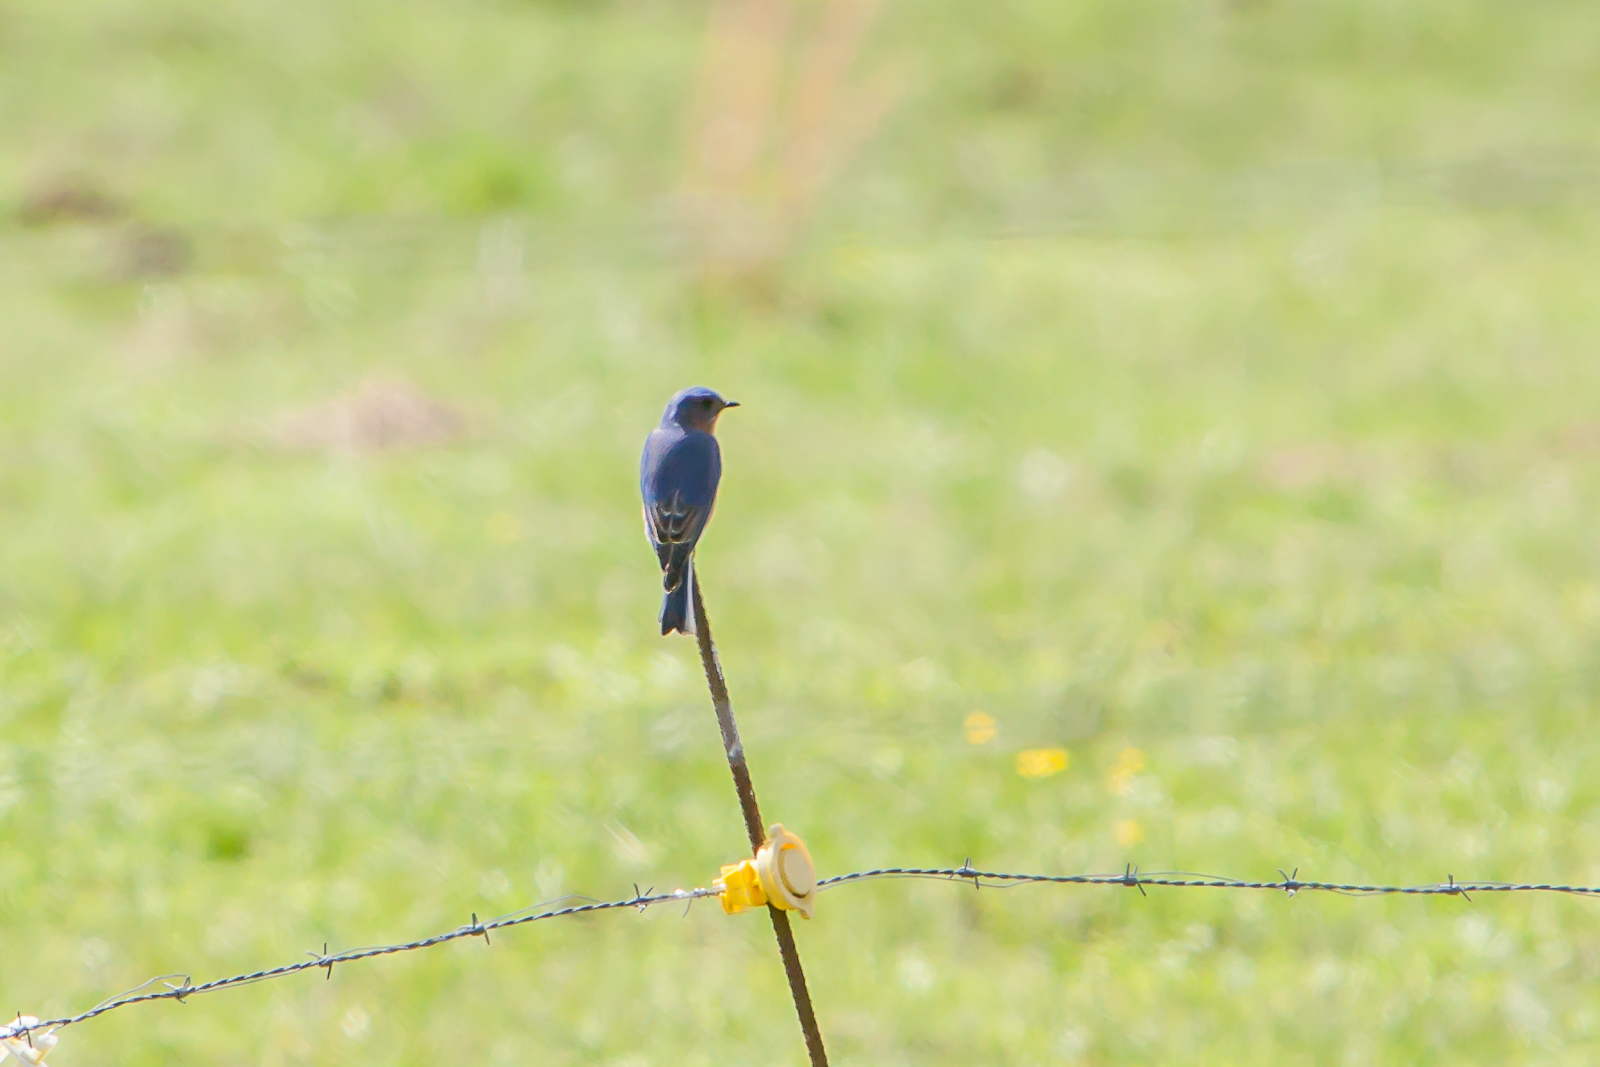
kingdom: Animalia
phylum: Chordata
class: Aves
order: Passeriformes
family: Turdidae
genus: Sialia
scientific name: Sialia sialis
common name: Eastern bluebird
